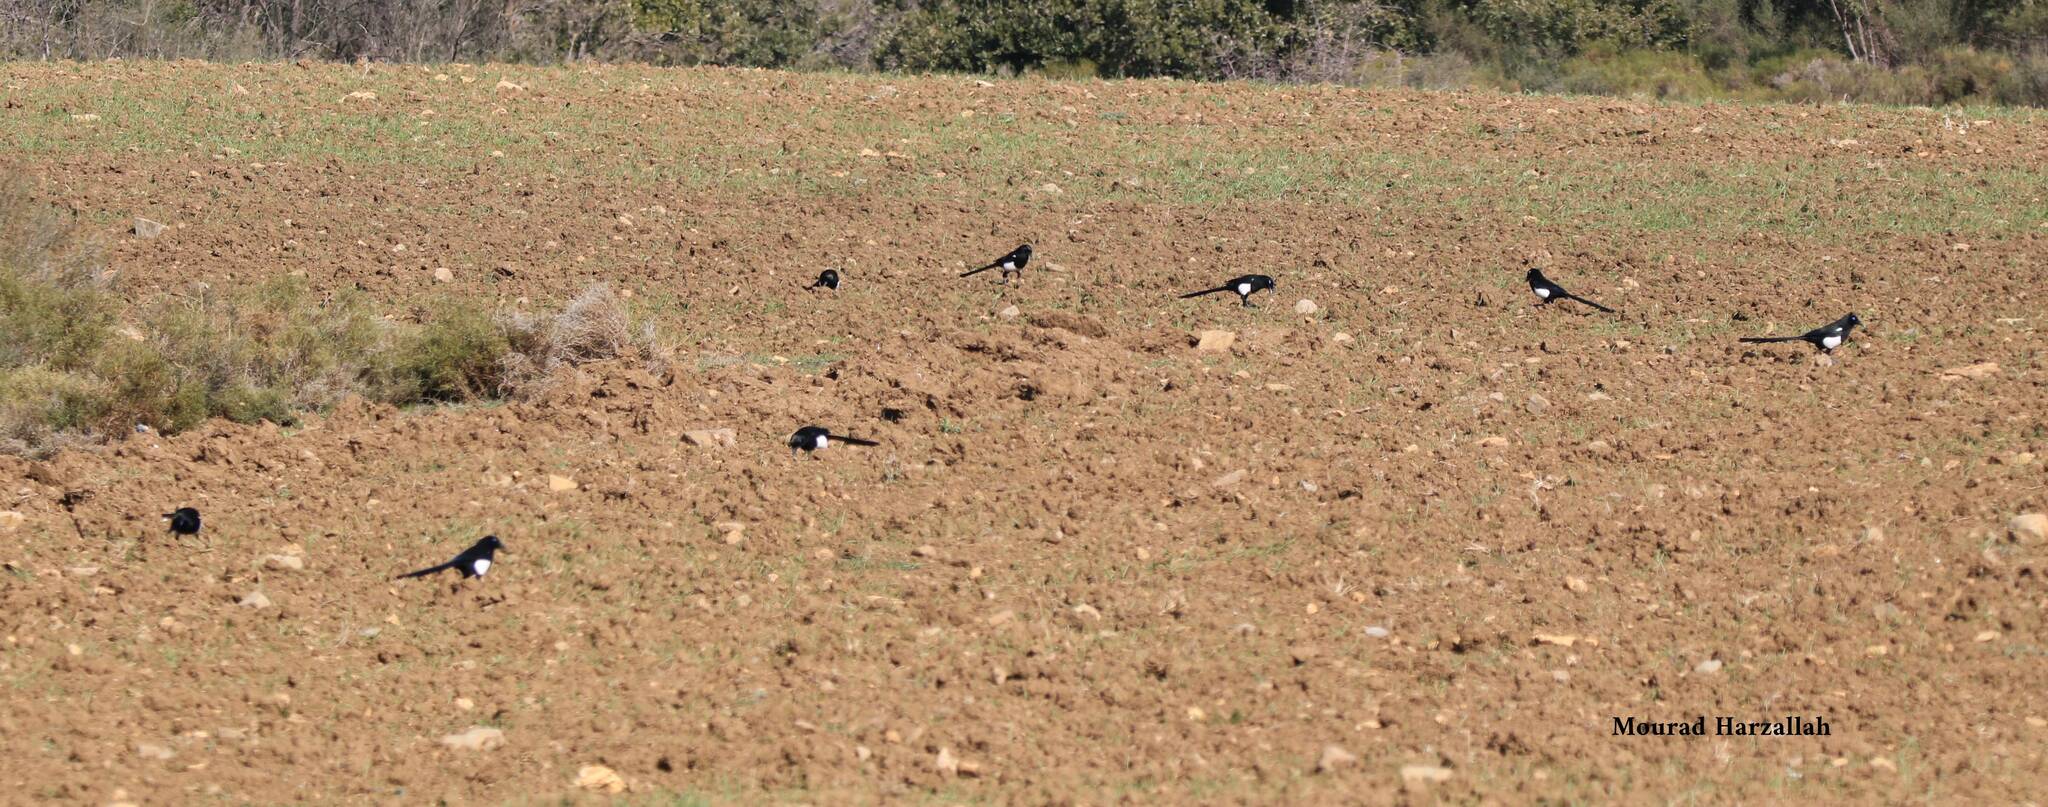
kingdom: Animalia
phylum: Chordata
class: Aves
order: Passeriformes
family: Corvidae
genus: Pica
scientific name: Pica mauritanica
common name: Maghreb magpie
